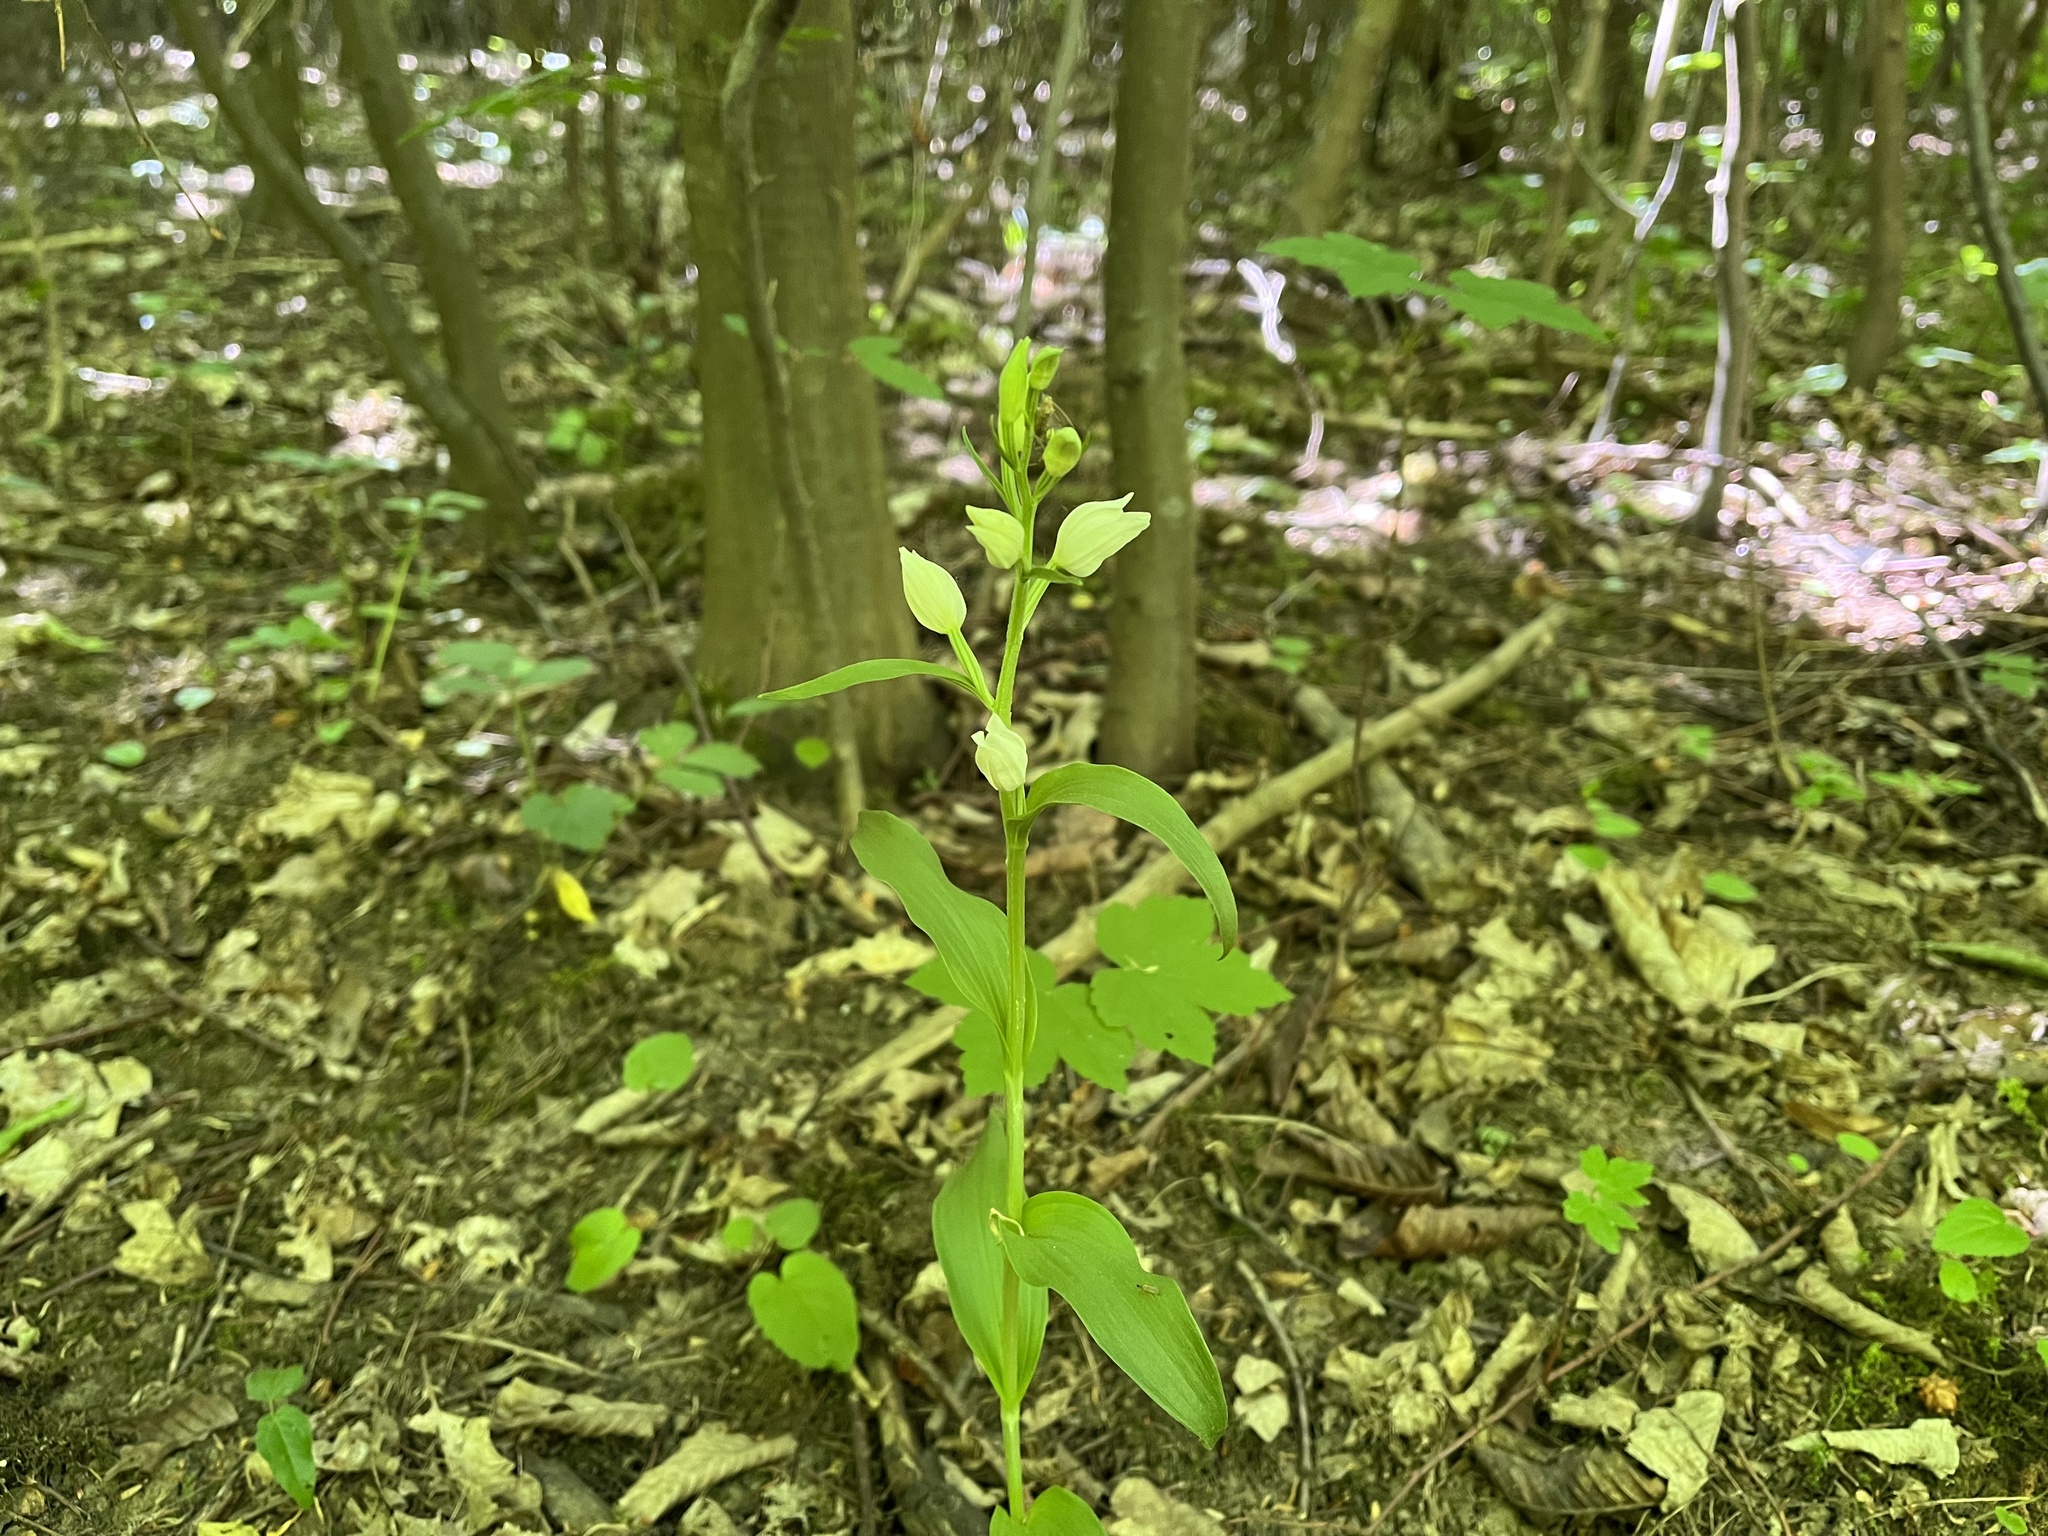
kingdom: Plantae
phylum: Tracheophyta
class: Liliopsida
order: Asparagales
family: Orchidaceae
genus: Cephalanthera
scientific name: Cephalanthera damasonium
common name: White helleborine
